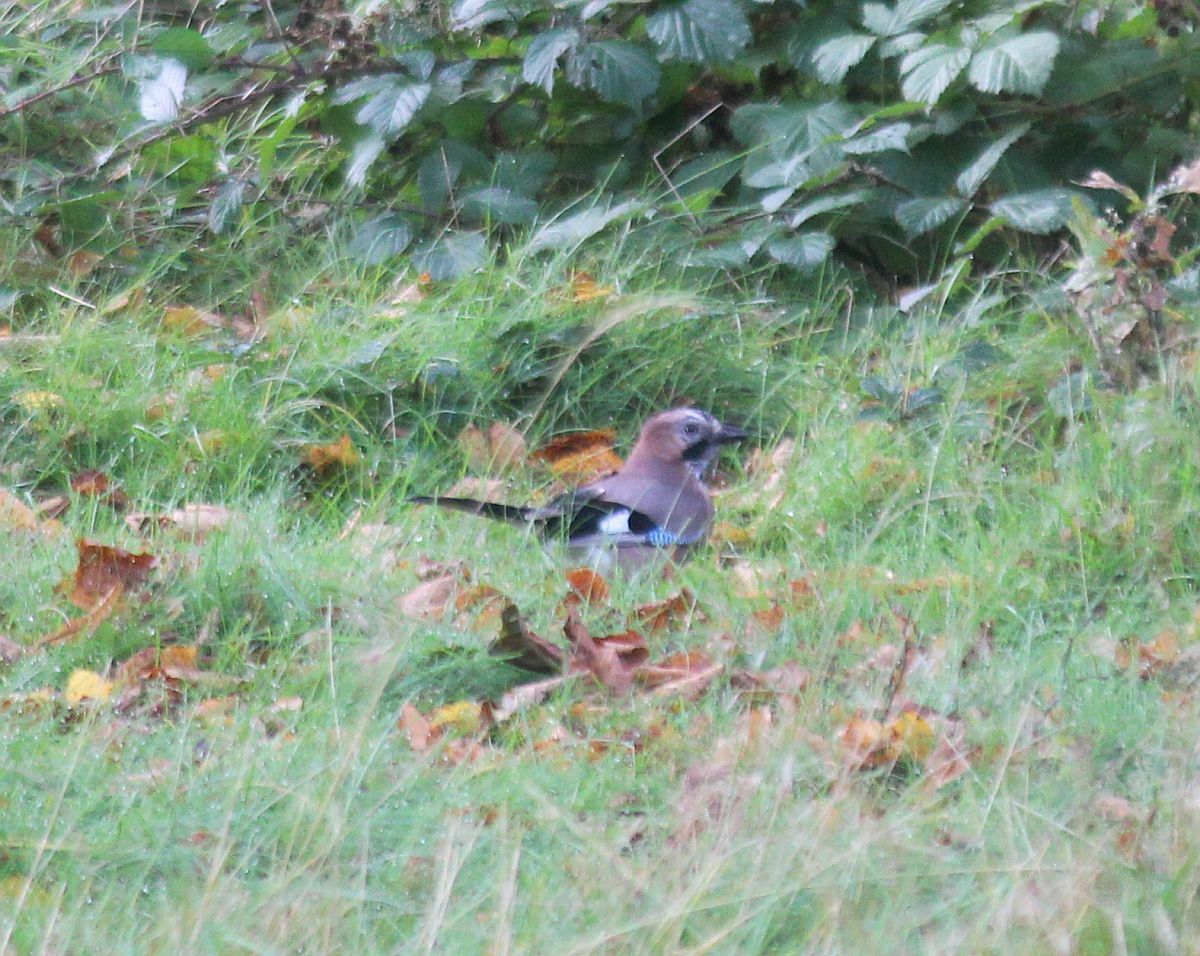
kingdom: Animalia
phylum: Chordata
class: Aves
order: Passeriformes
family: Corvidae
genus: Garrulus
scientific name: Garrulus glandarius
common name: Eurasian jay
